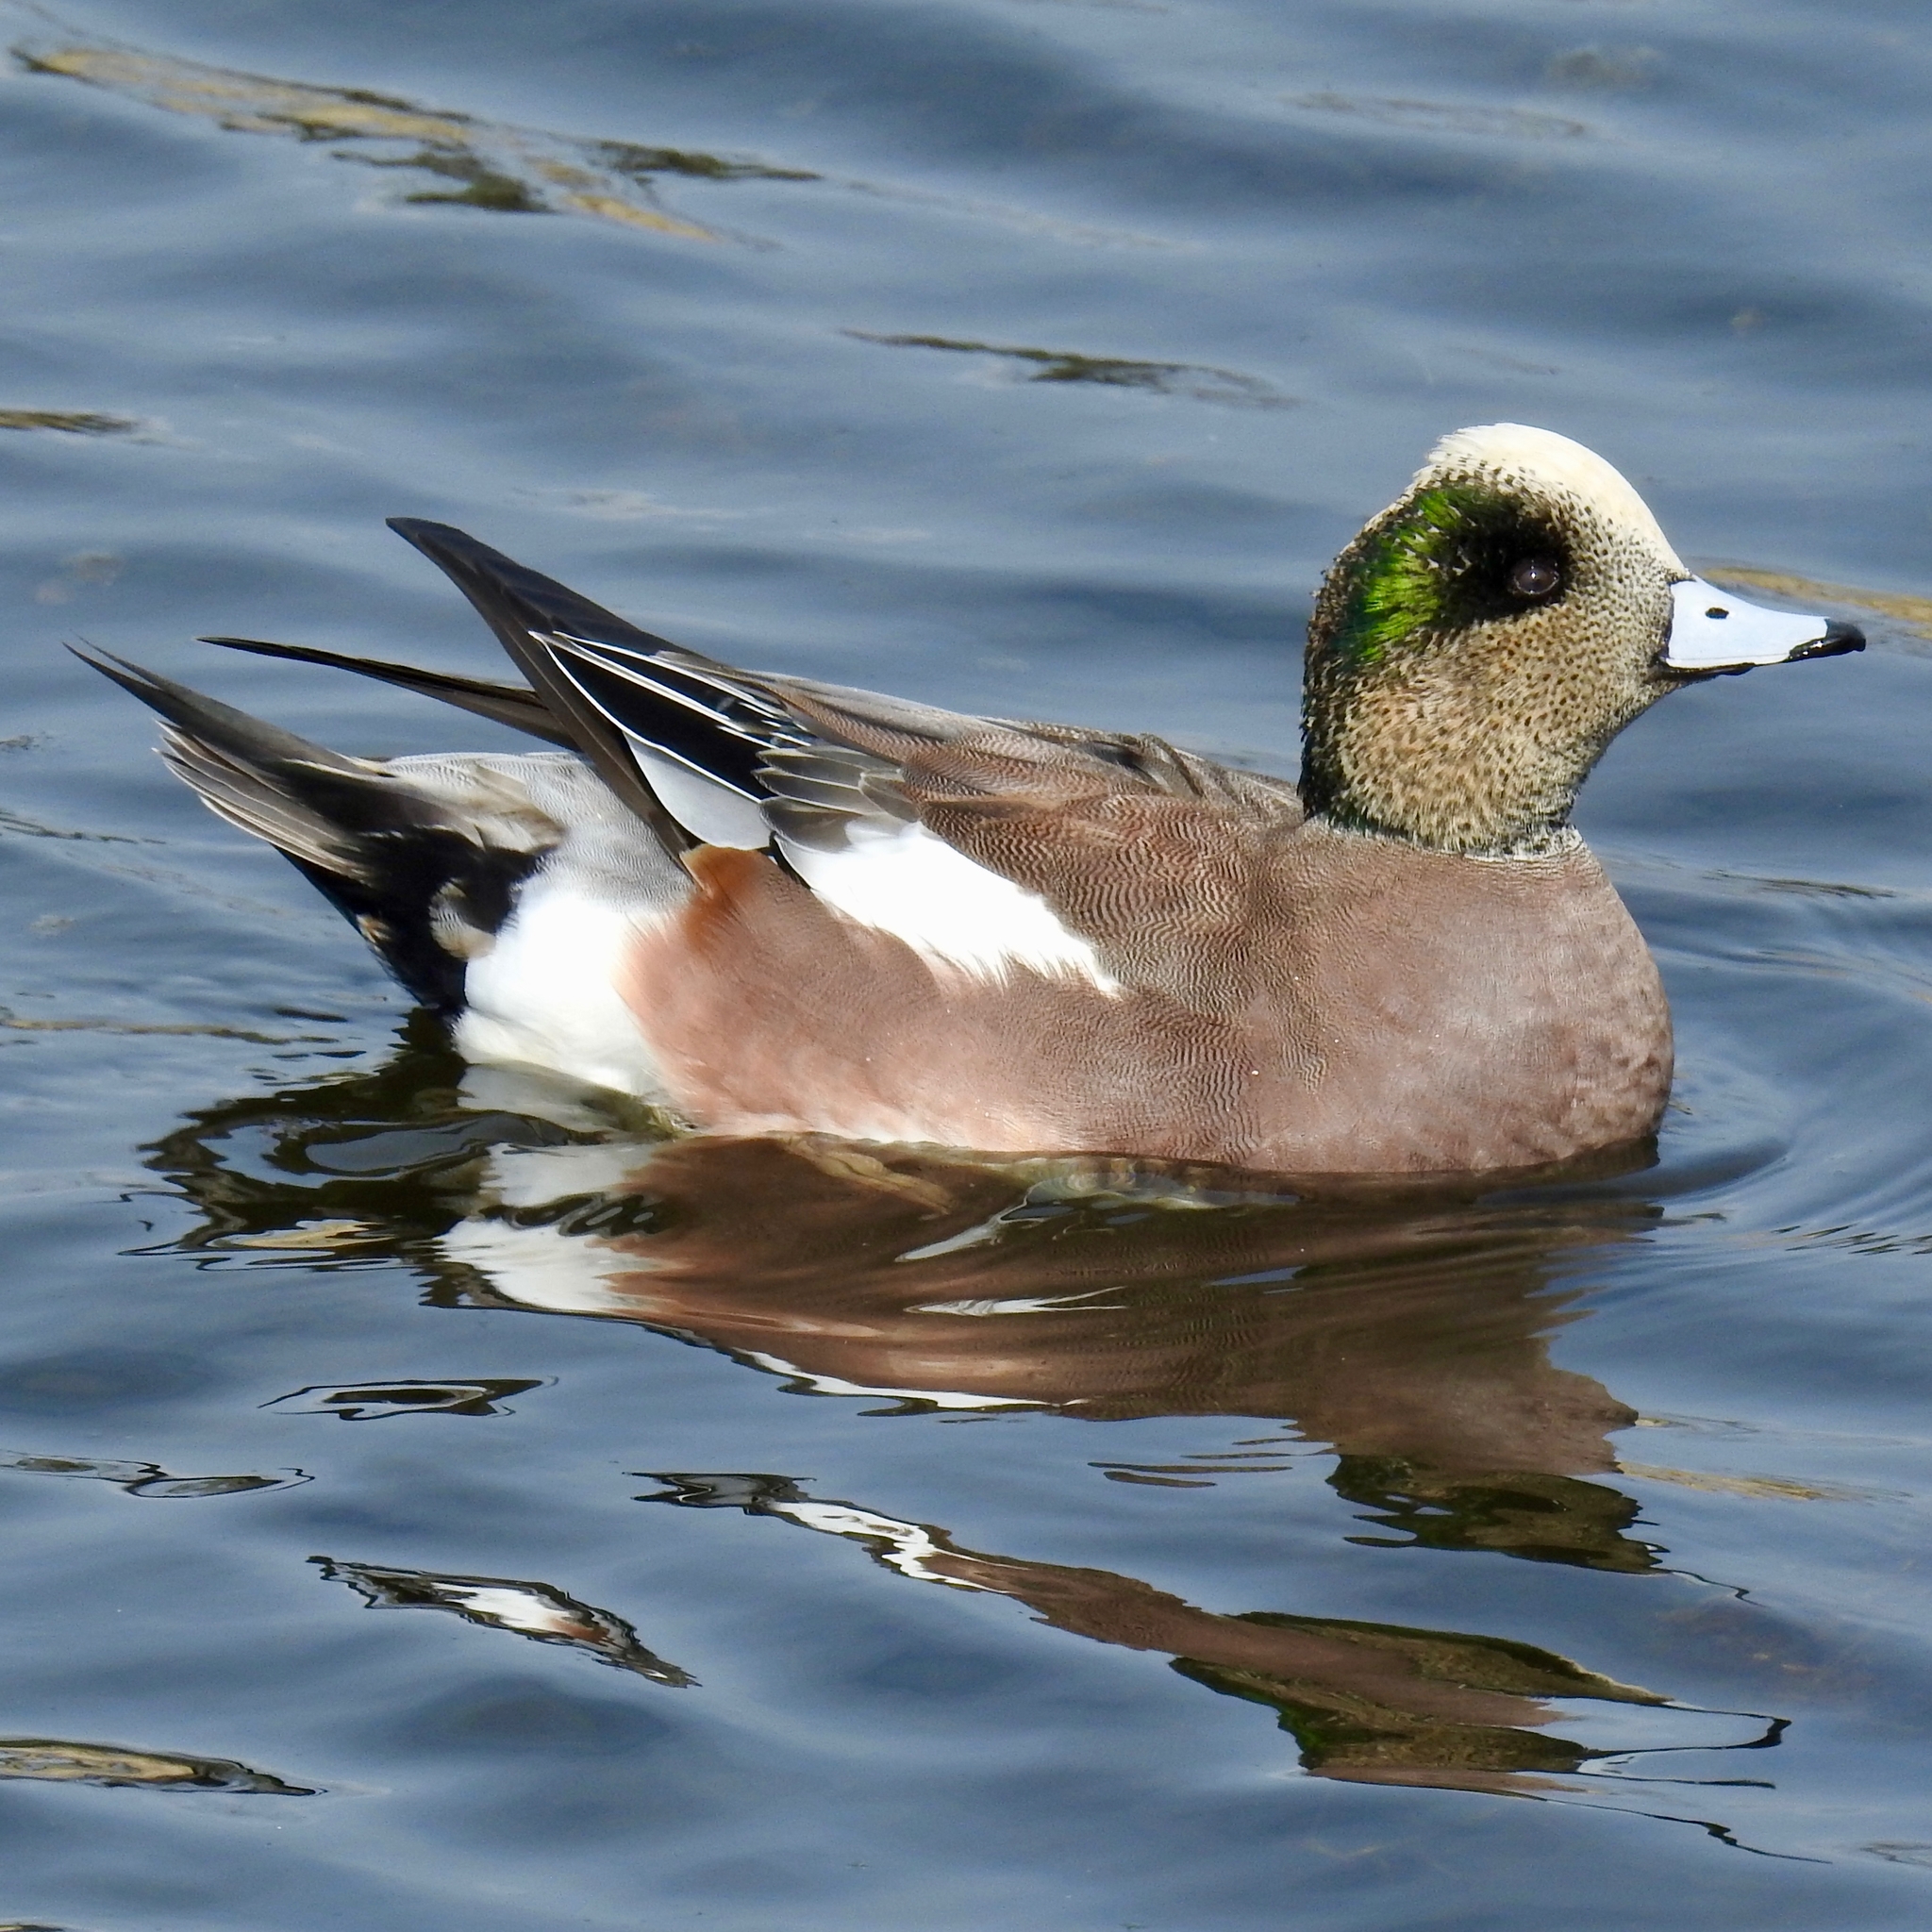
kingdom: Animalia
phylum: Chordata
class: Aves
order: Anseriformes
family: Anatidae
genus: Mareca
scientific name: Mareca americana
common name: American wigeon
